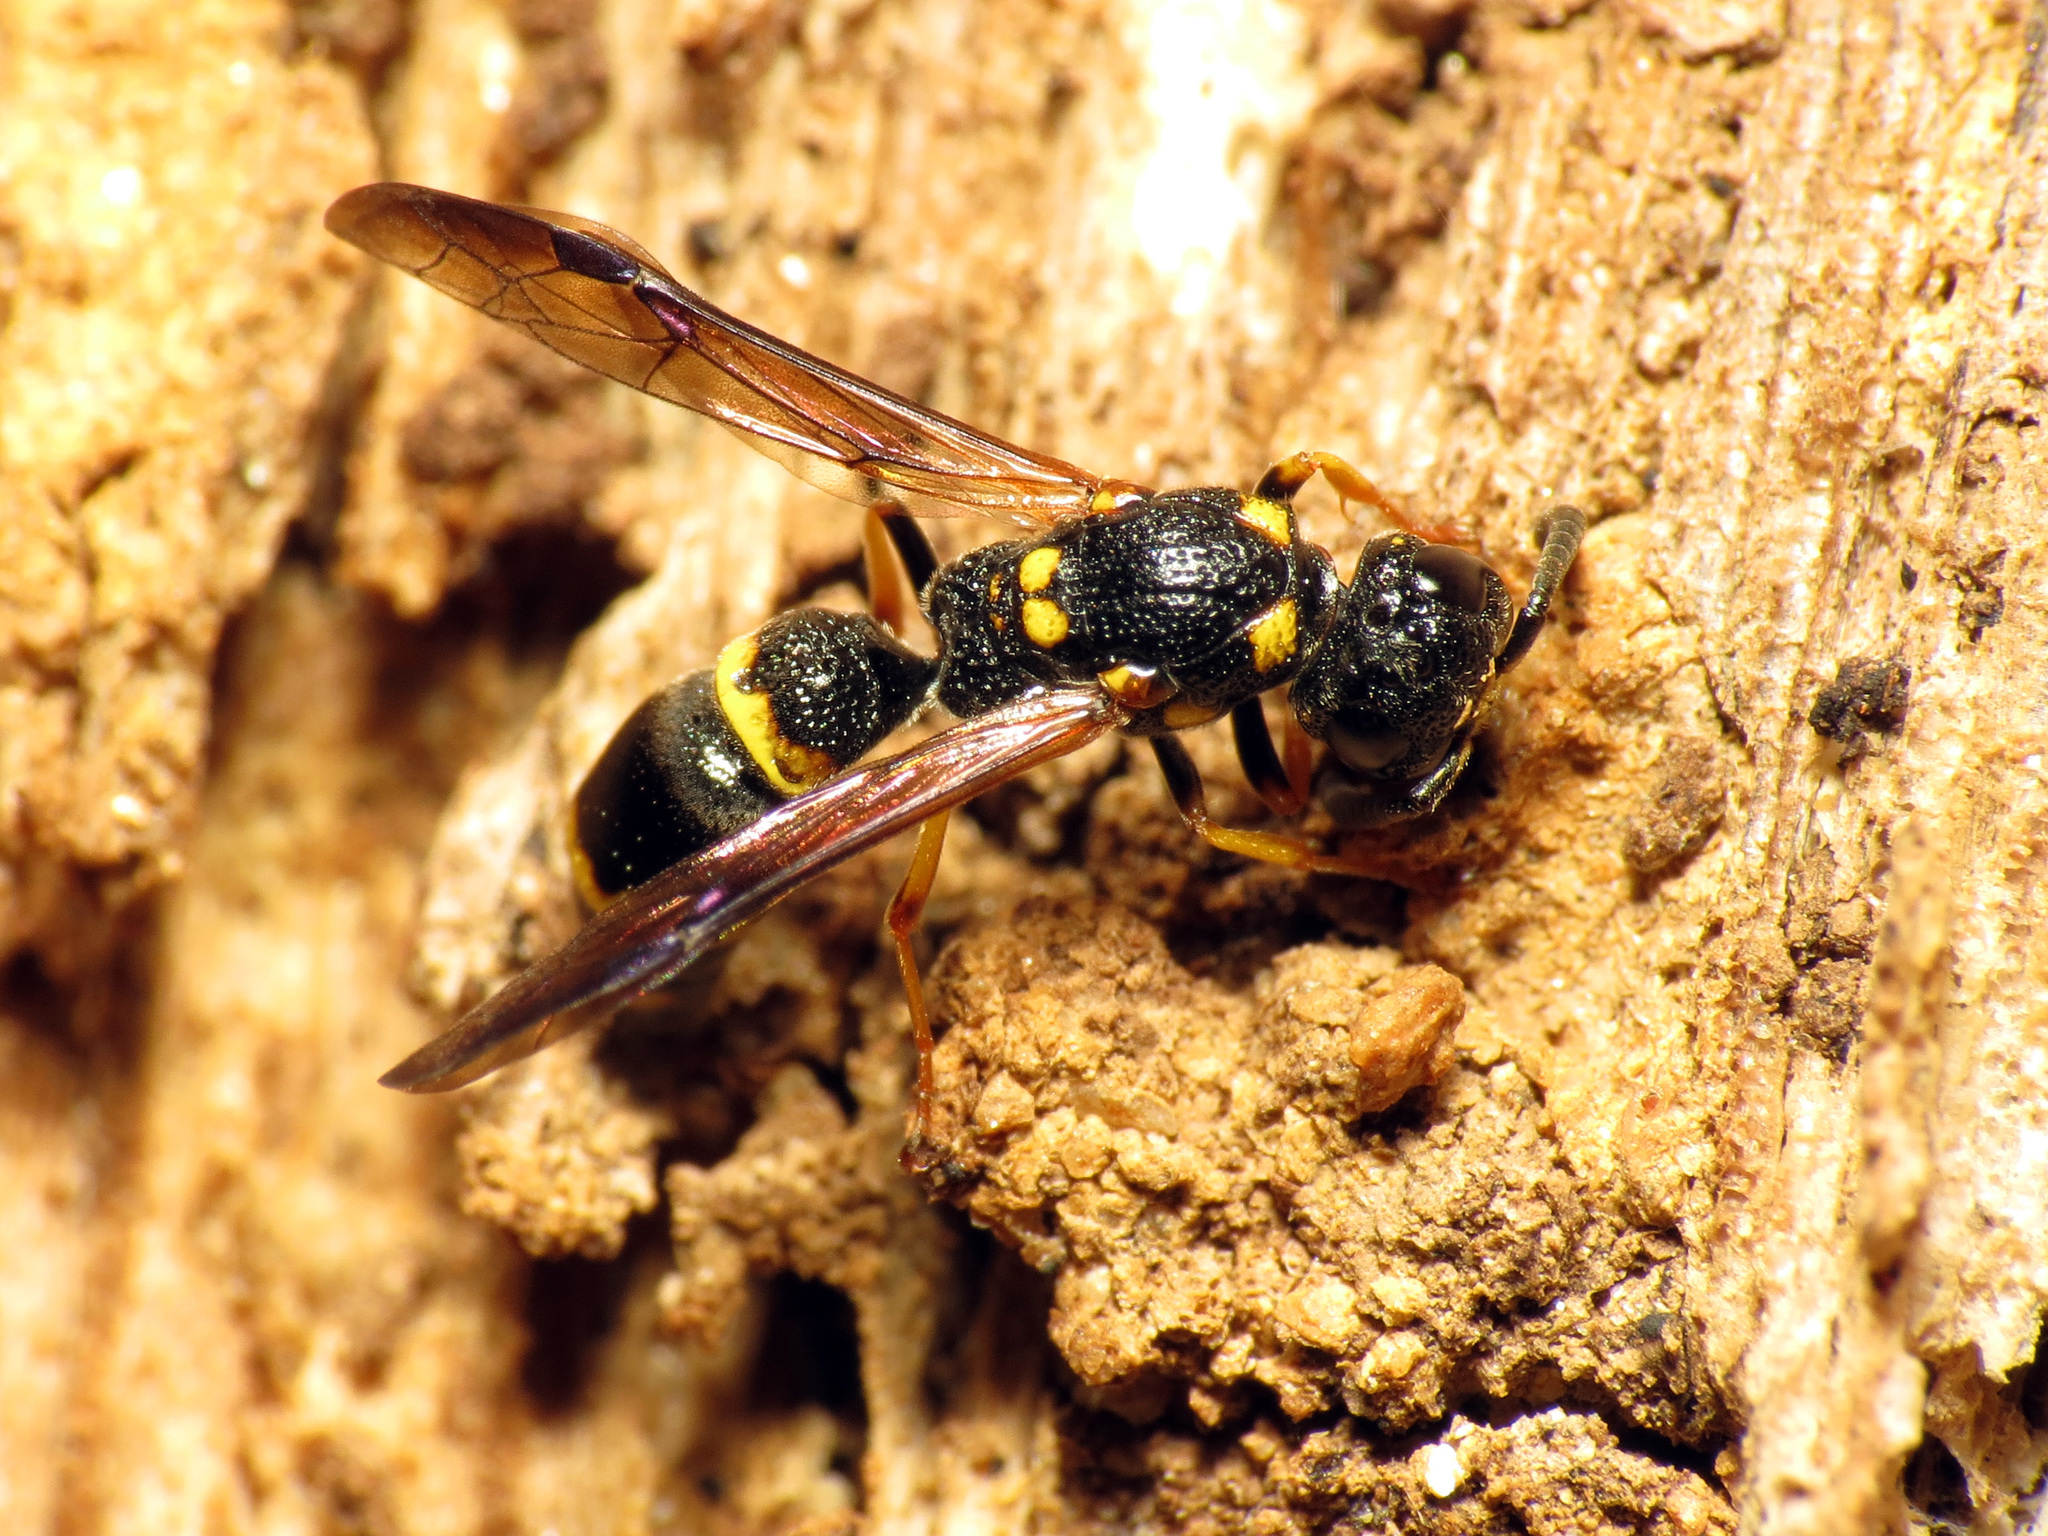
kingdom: Animalia
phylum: Arthropoda
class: Insecta
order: Hymenoptera
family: Eumenidae
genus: Symmorphus
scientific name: Symmorphus canadensis
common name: Canadian potter wasp
